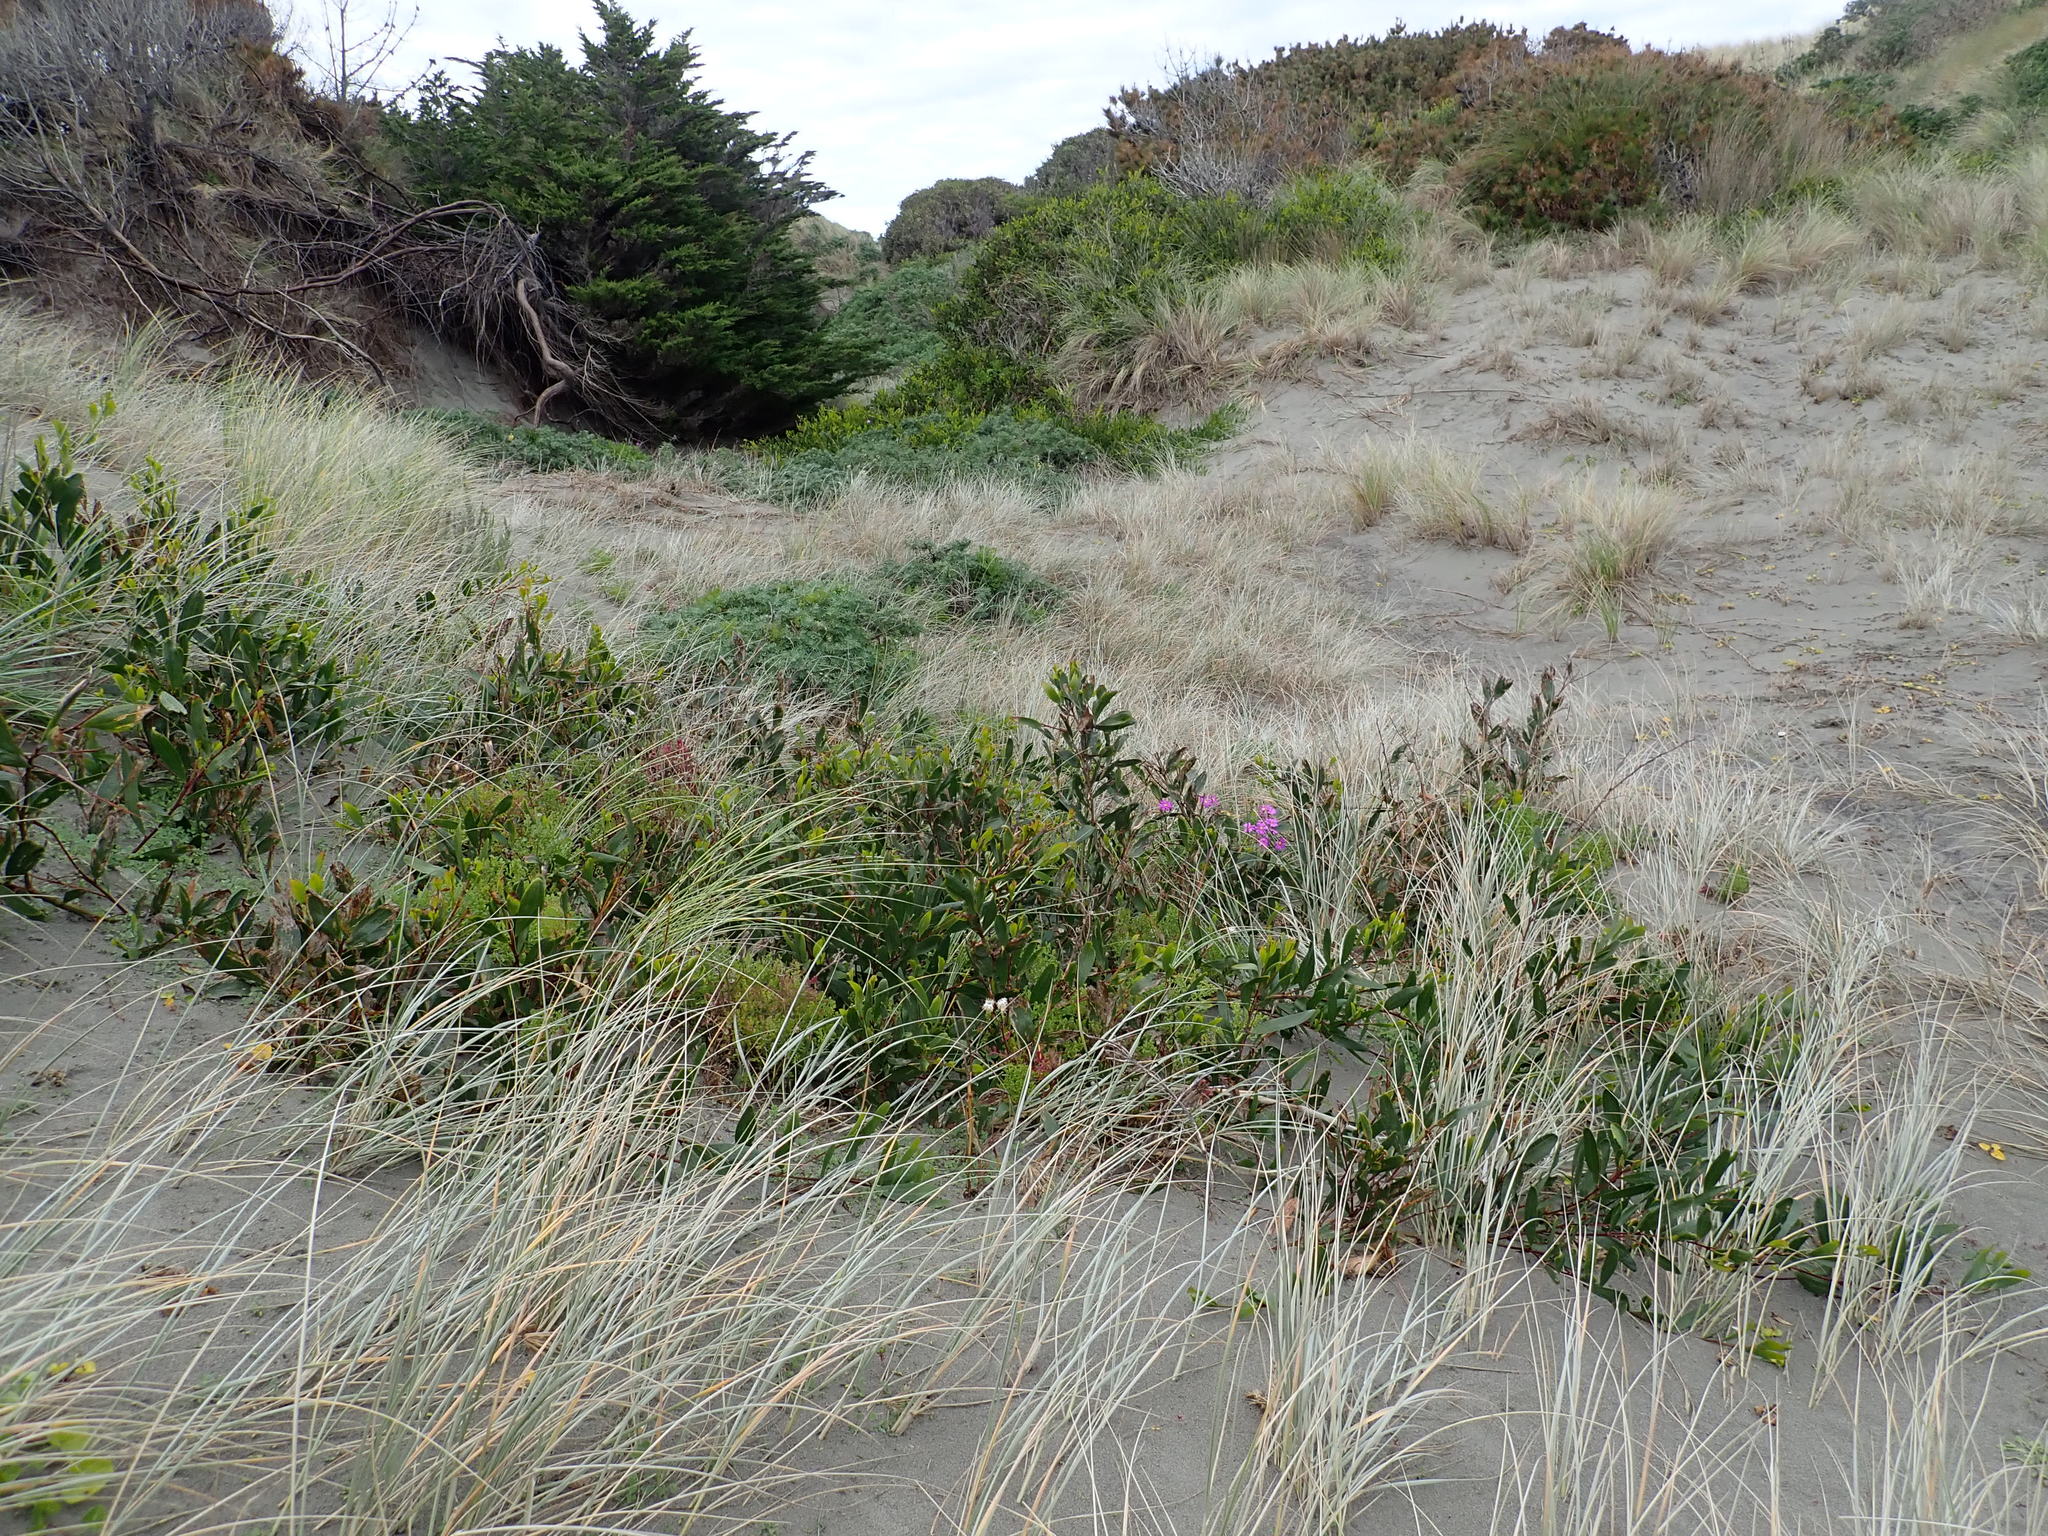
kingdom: Plantae
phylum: Tracheophyta
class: Magnoliopsida
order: Fabales
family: Fabaceae
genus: Acacia
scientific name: Acacia longifolia
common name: Sydney golden wattle
